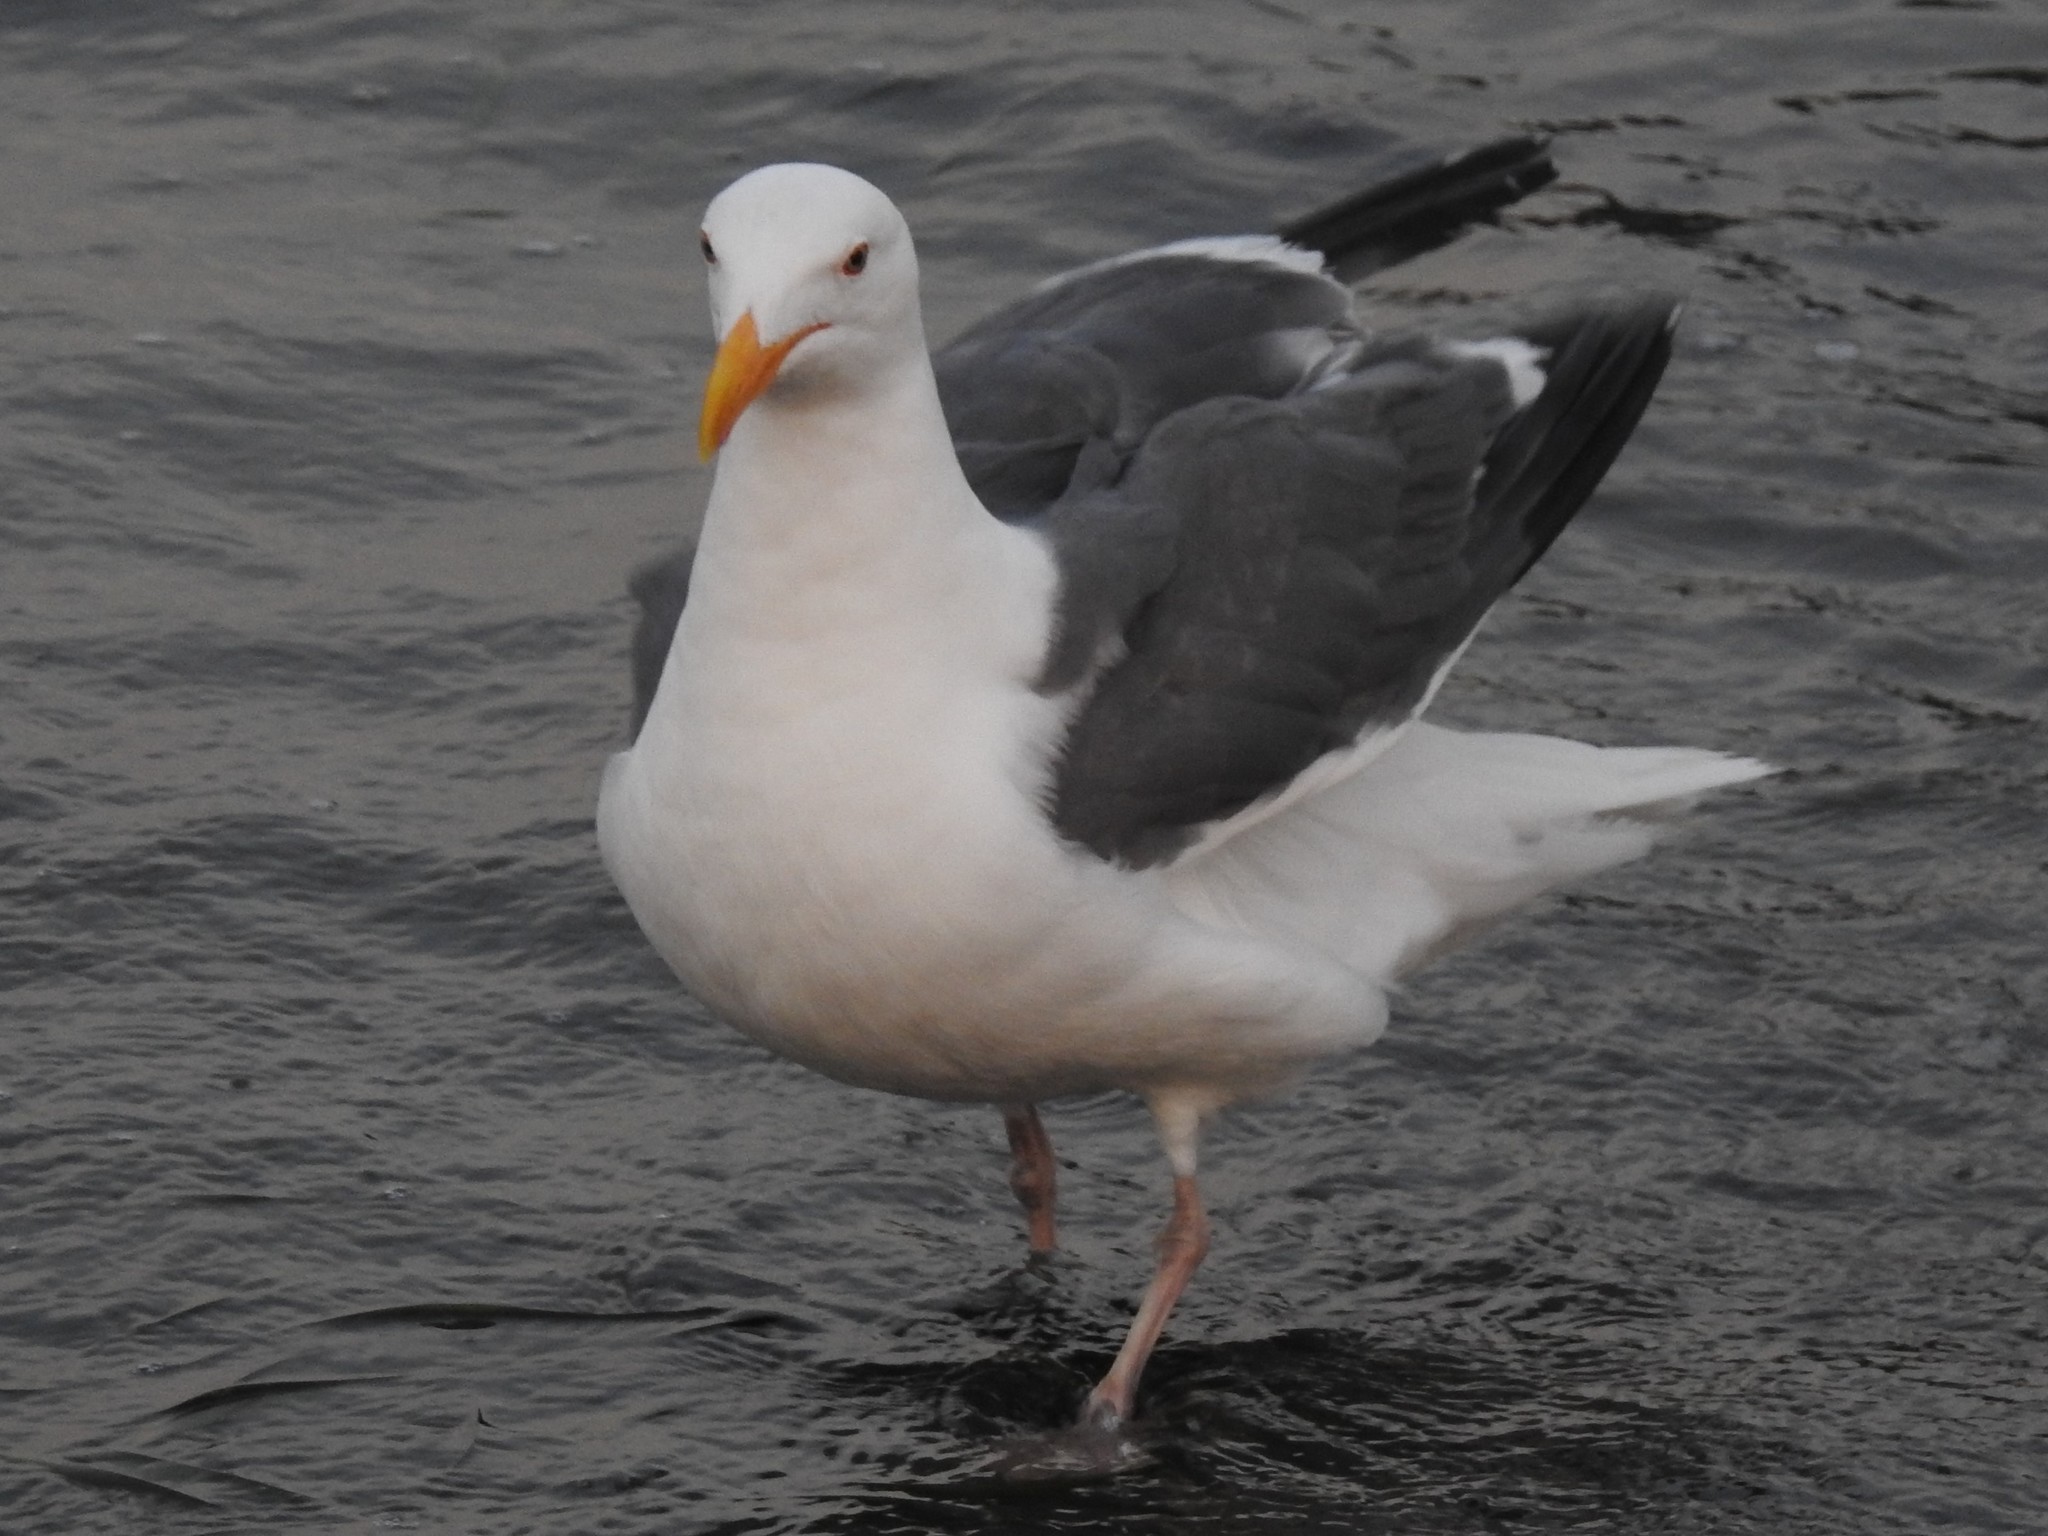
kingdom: Animalia
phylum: Chordata
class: Aves
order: Charadriiformes
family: Laridae
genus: Larus
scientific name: Larus occidentalis
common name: Western gull
